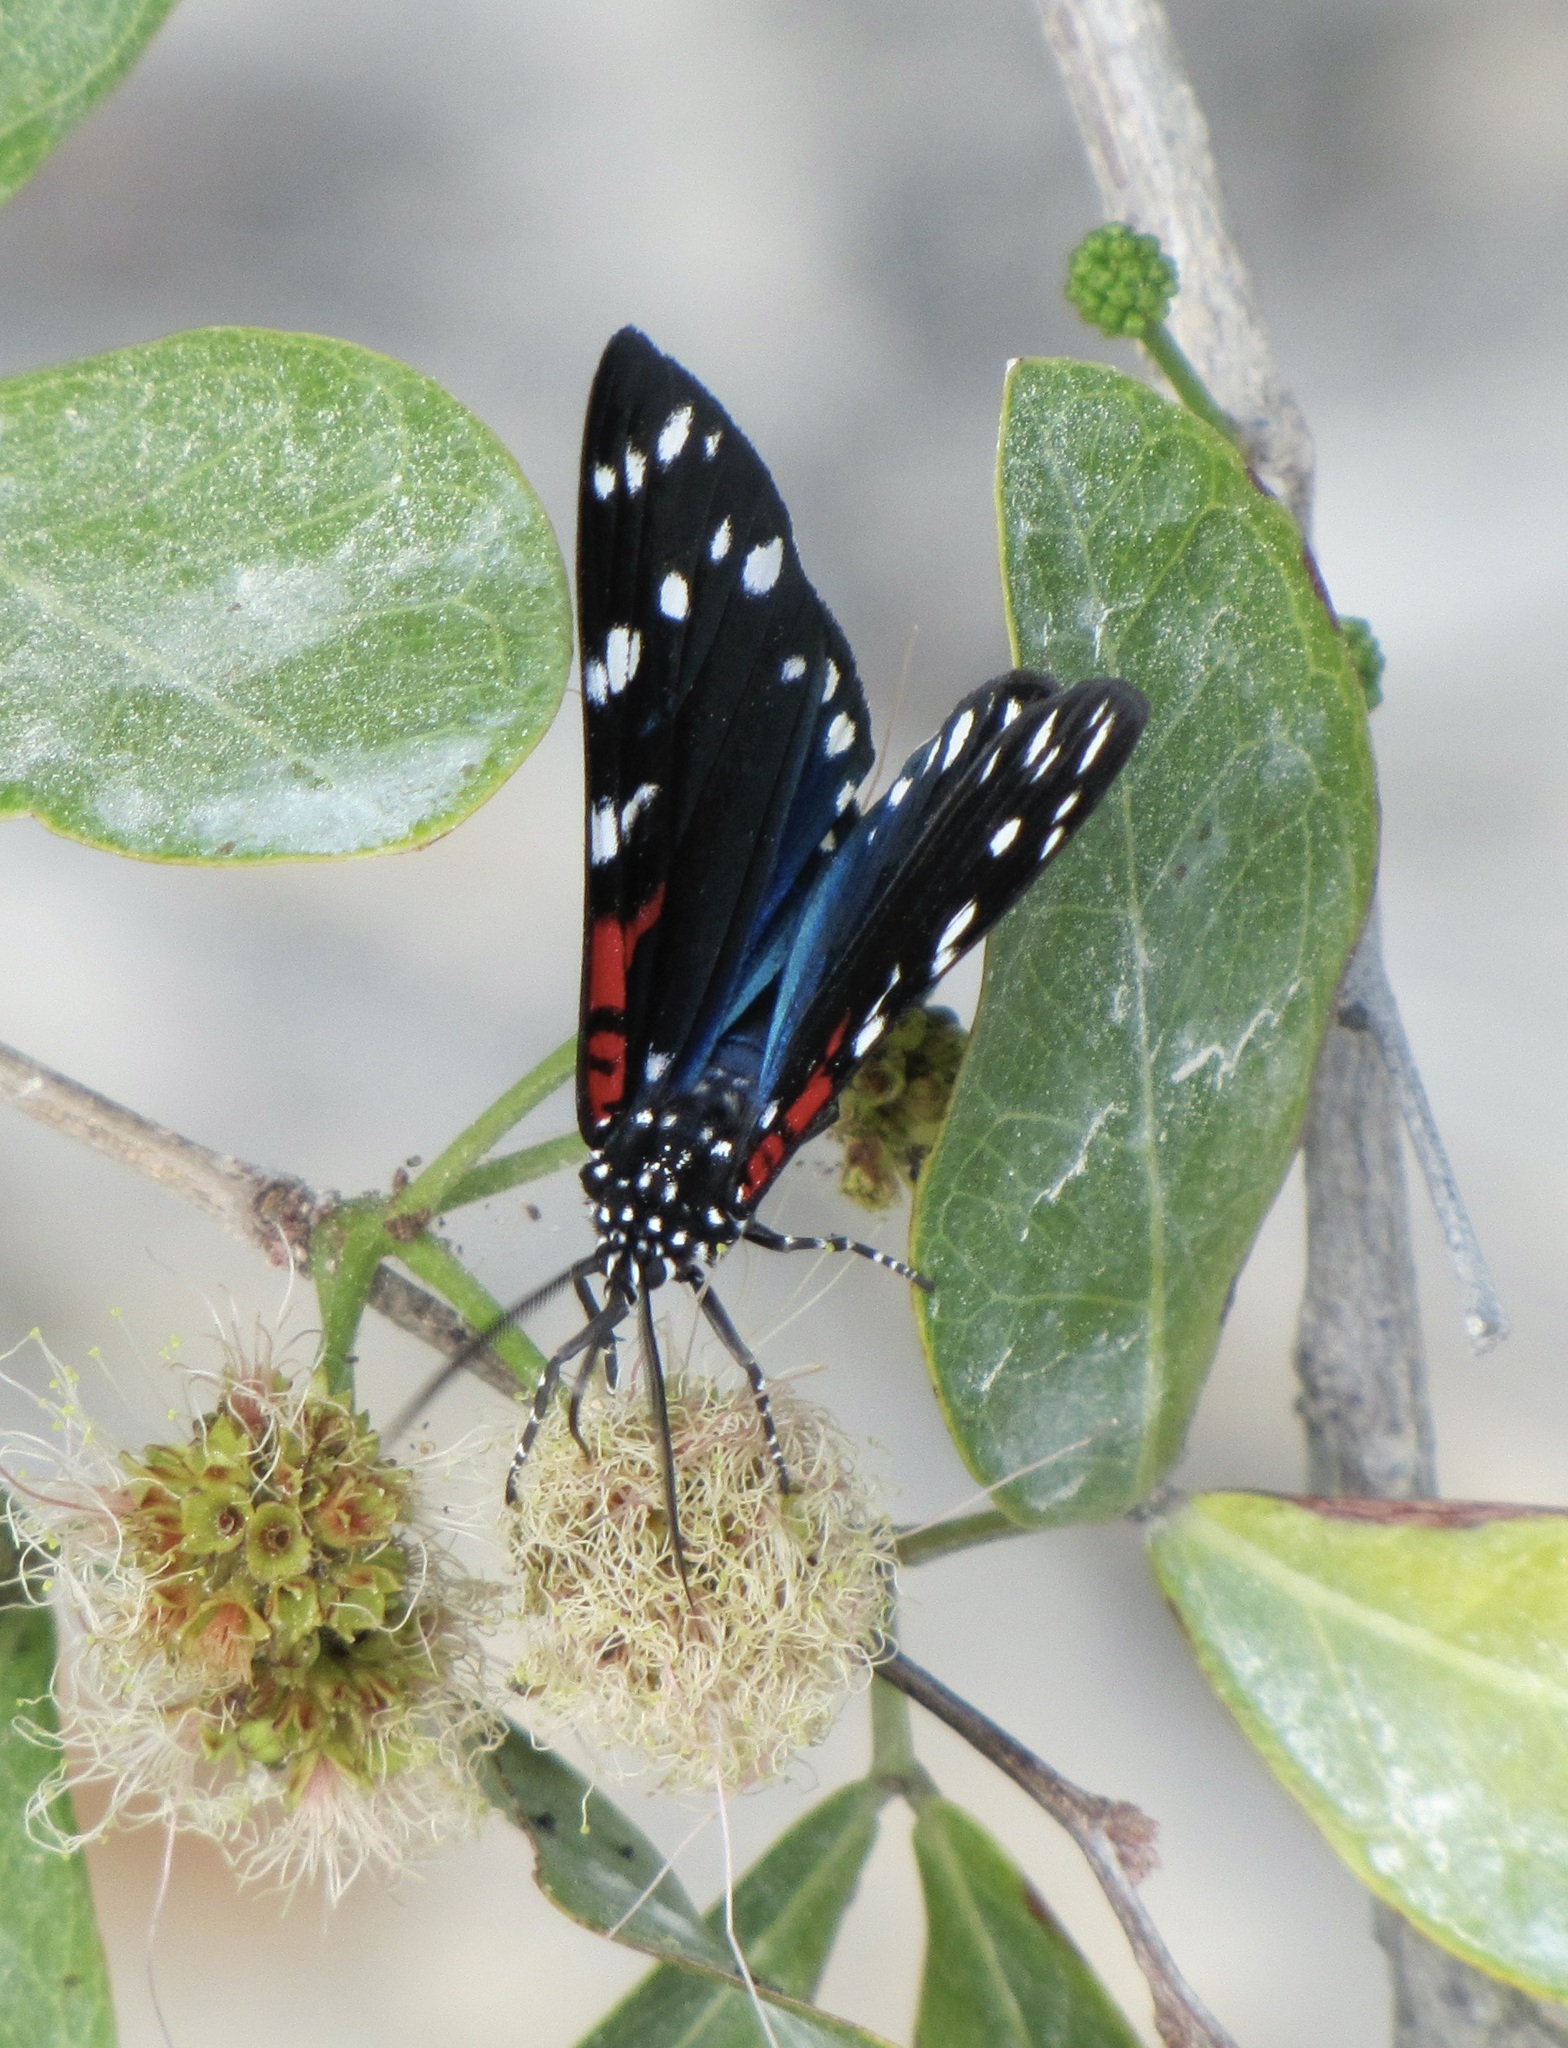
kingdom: Animalia
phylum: Arthropoda
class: Insecta
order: Lepidoptera
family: Erebidae
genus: Composia
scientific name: Composia fidelissima
